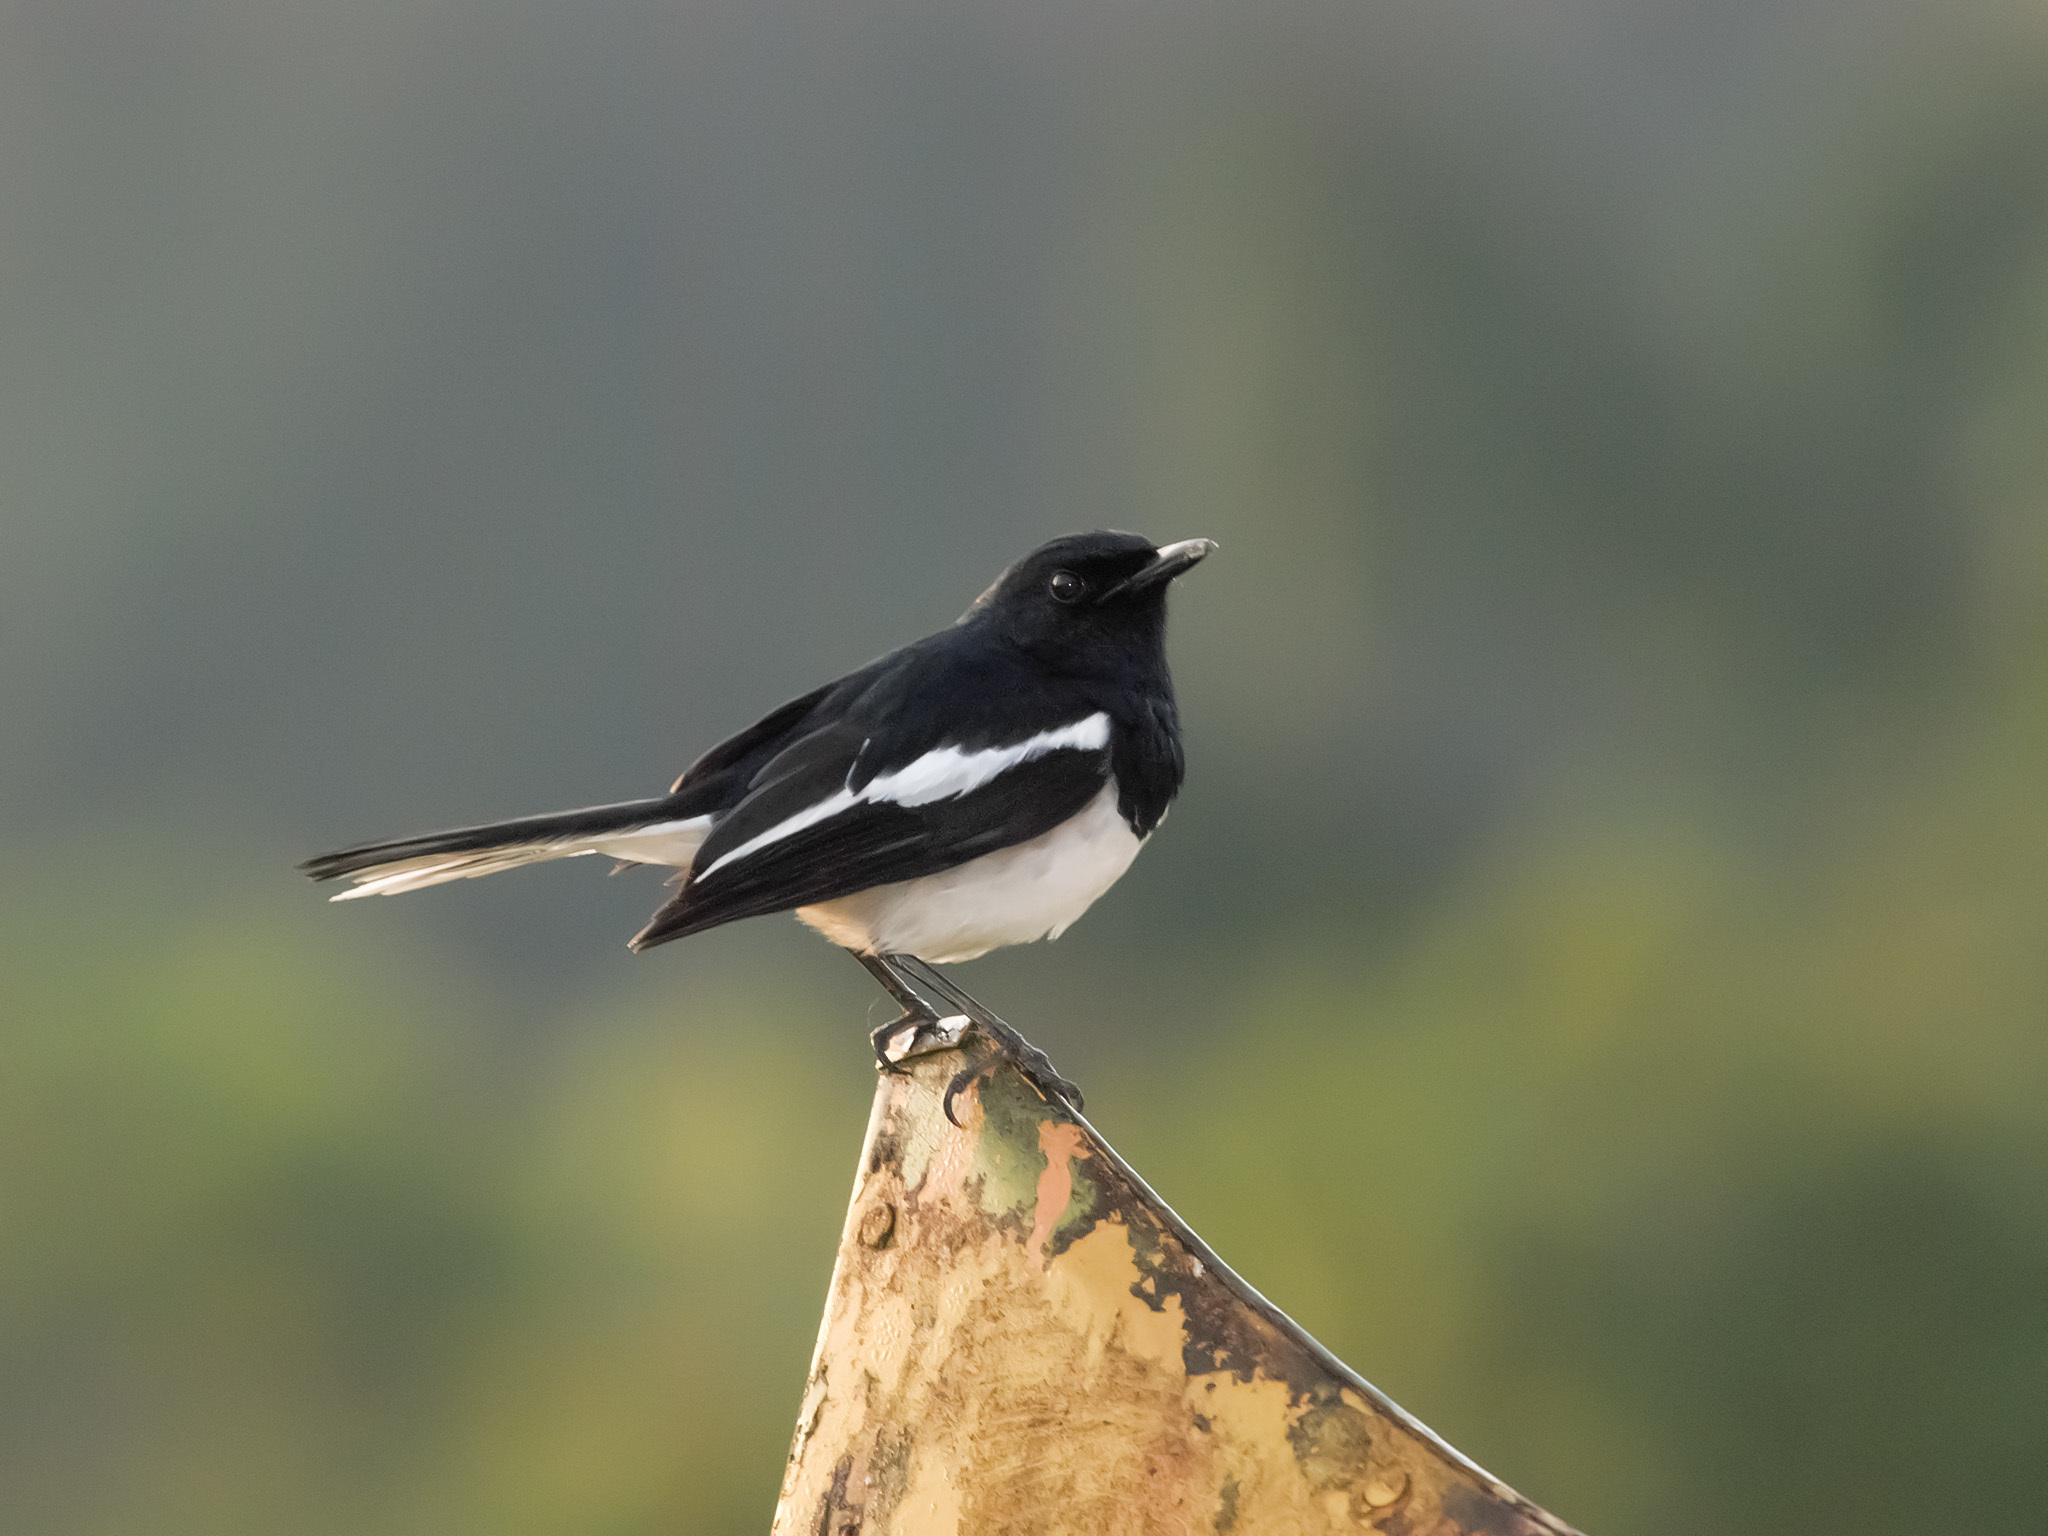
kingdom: Animalia
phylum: Chordata
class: Aves
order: Passeriformes
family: Muscicapidae
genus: Copsychus
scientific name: Copsychus saularis
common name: Oriental magpie-robin
